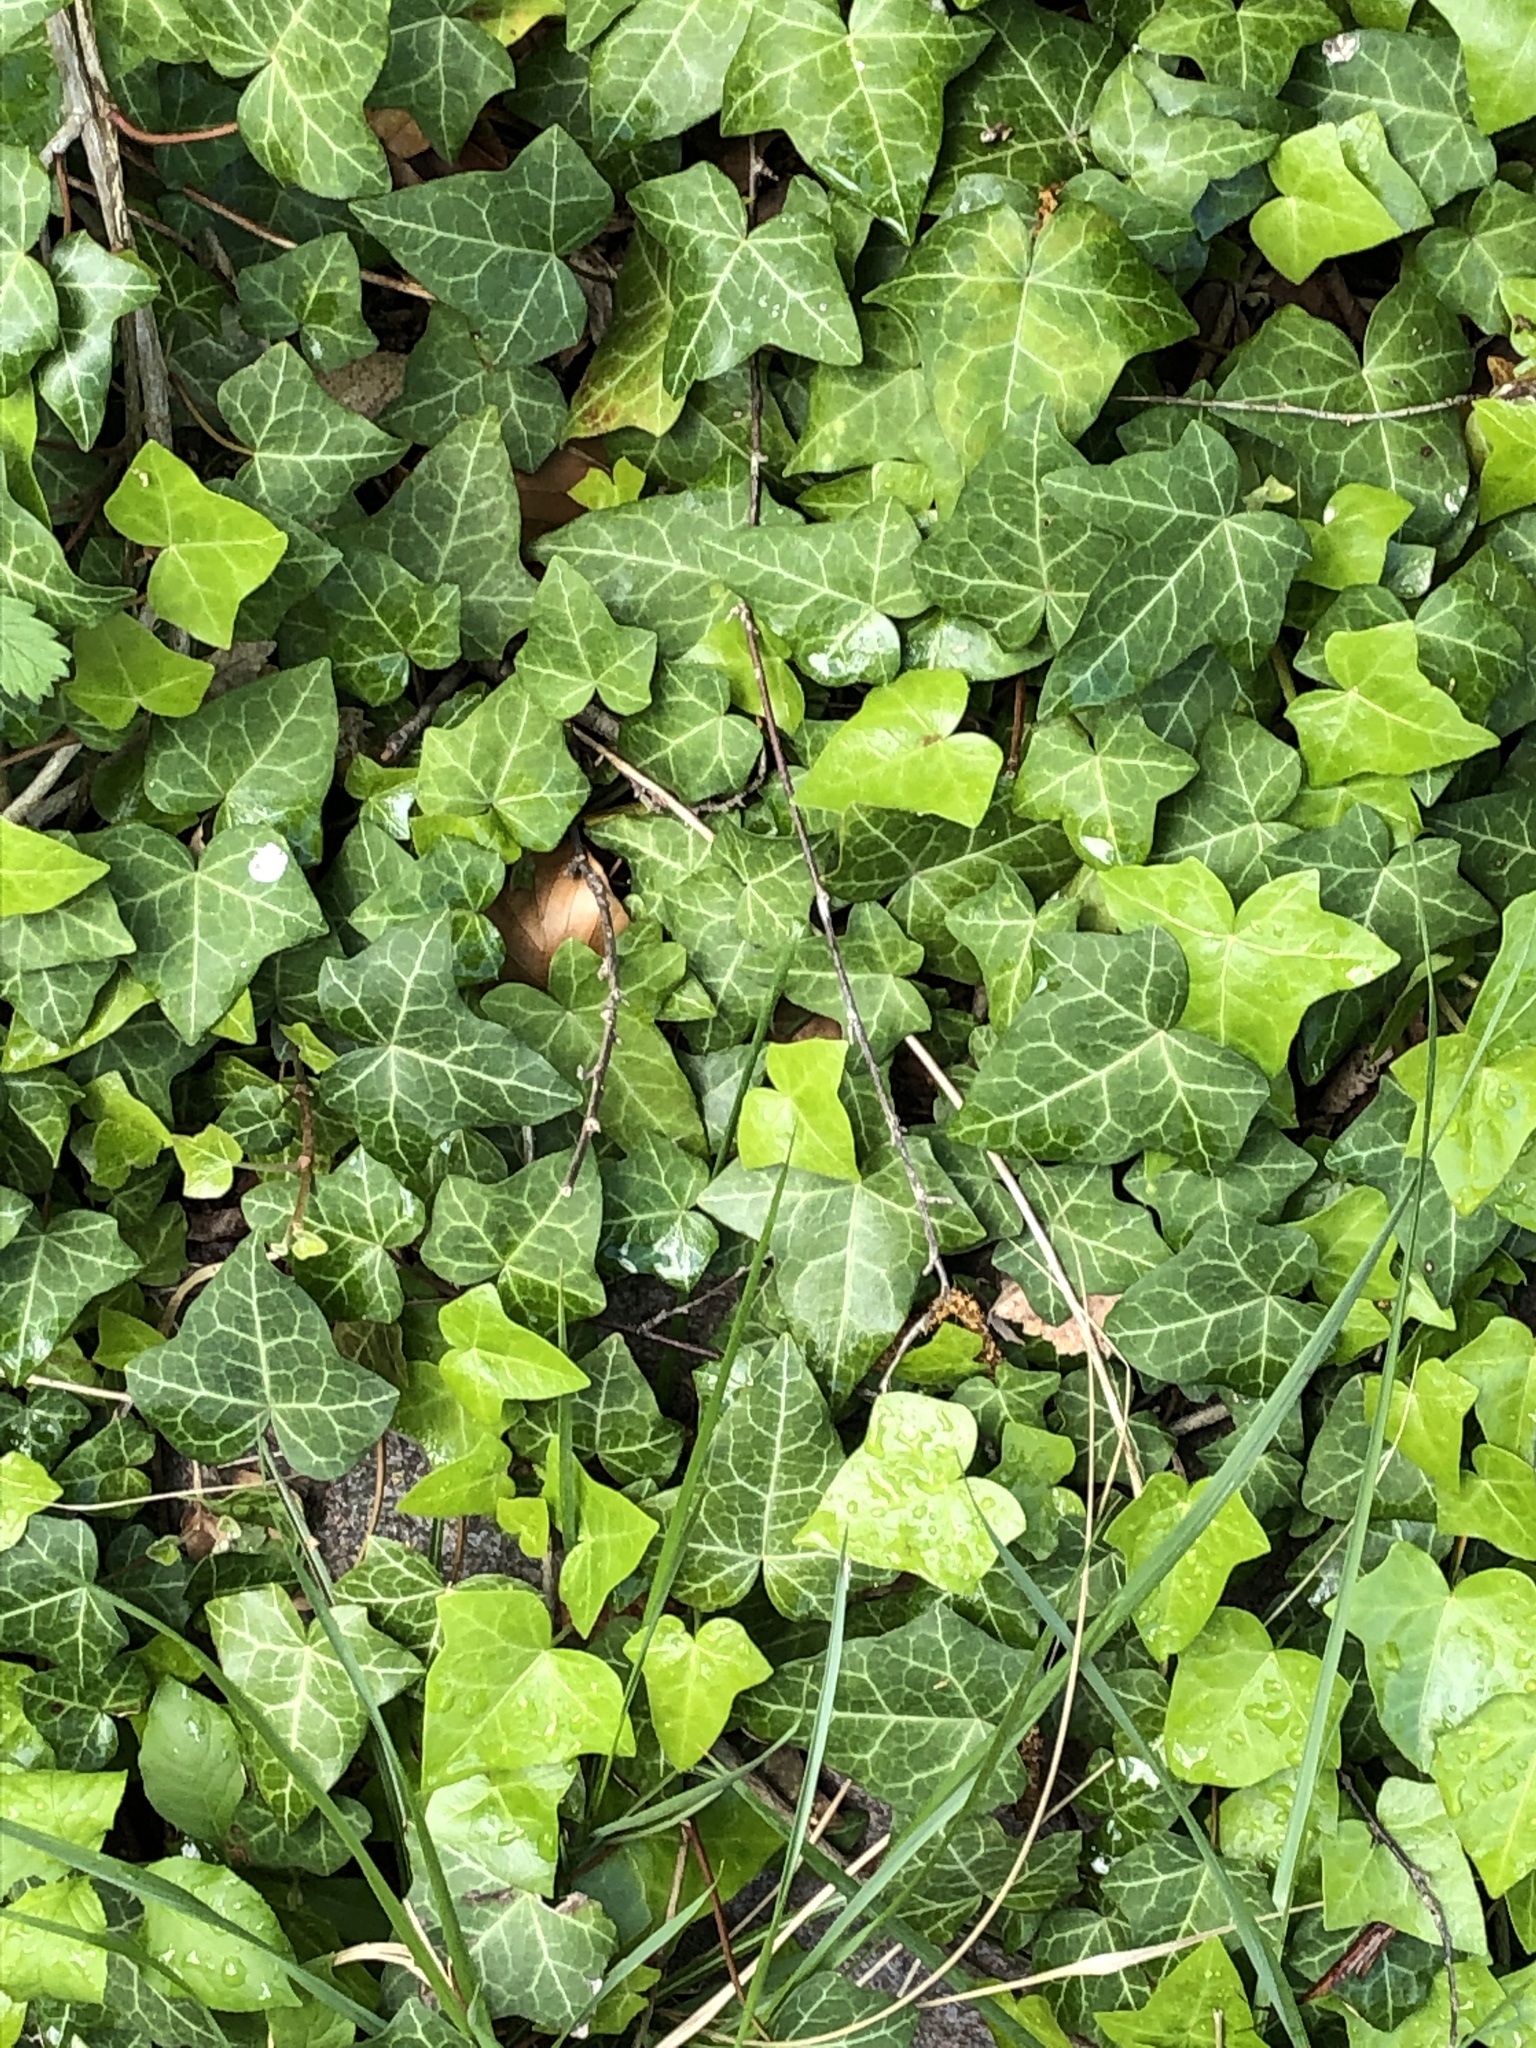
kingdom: Plantae
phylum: Tracheophyta
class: Magnoliopsida
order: Apiales
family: Araliaceae
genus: Hedera
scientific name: Hedera helix
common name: Ivy
